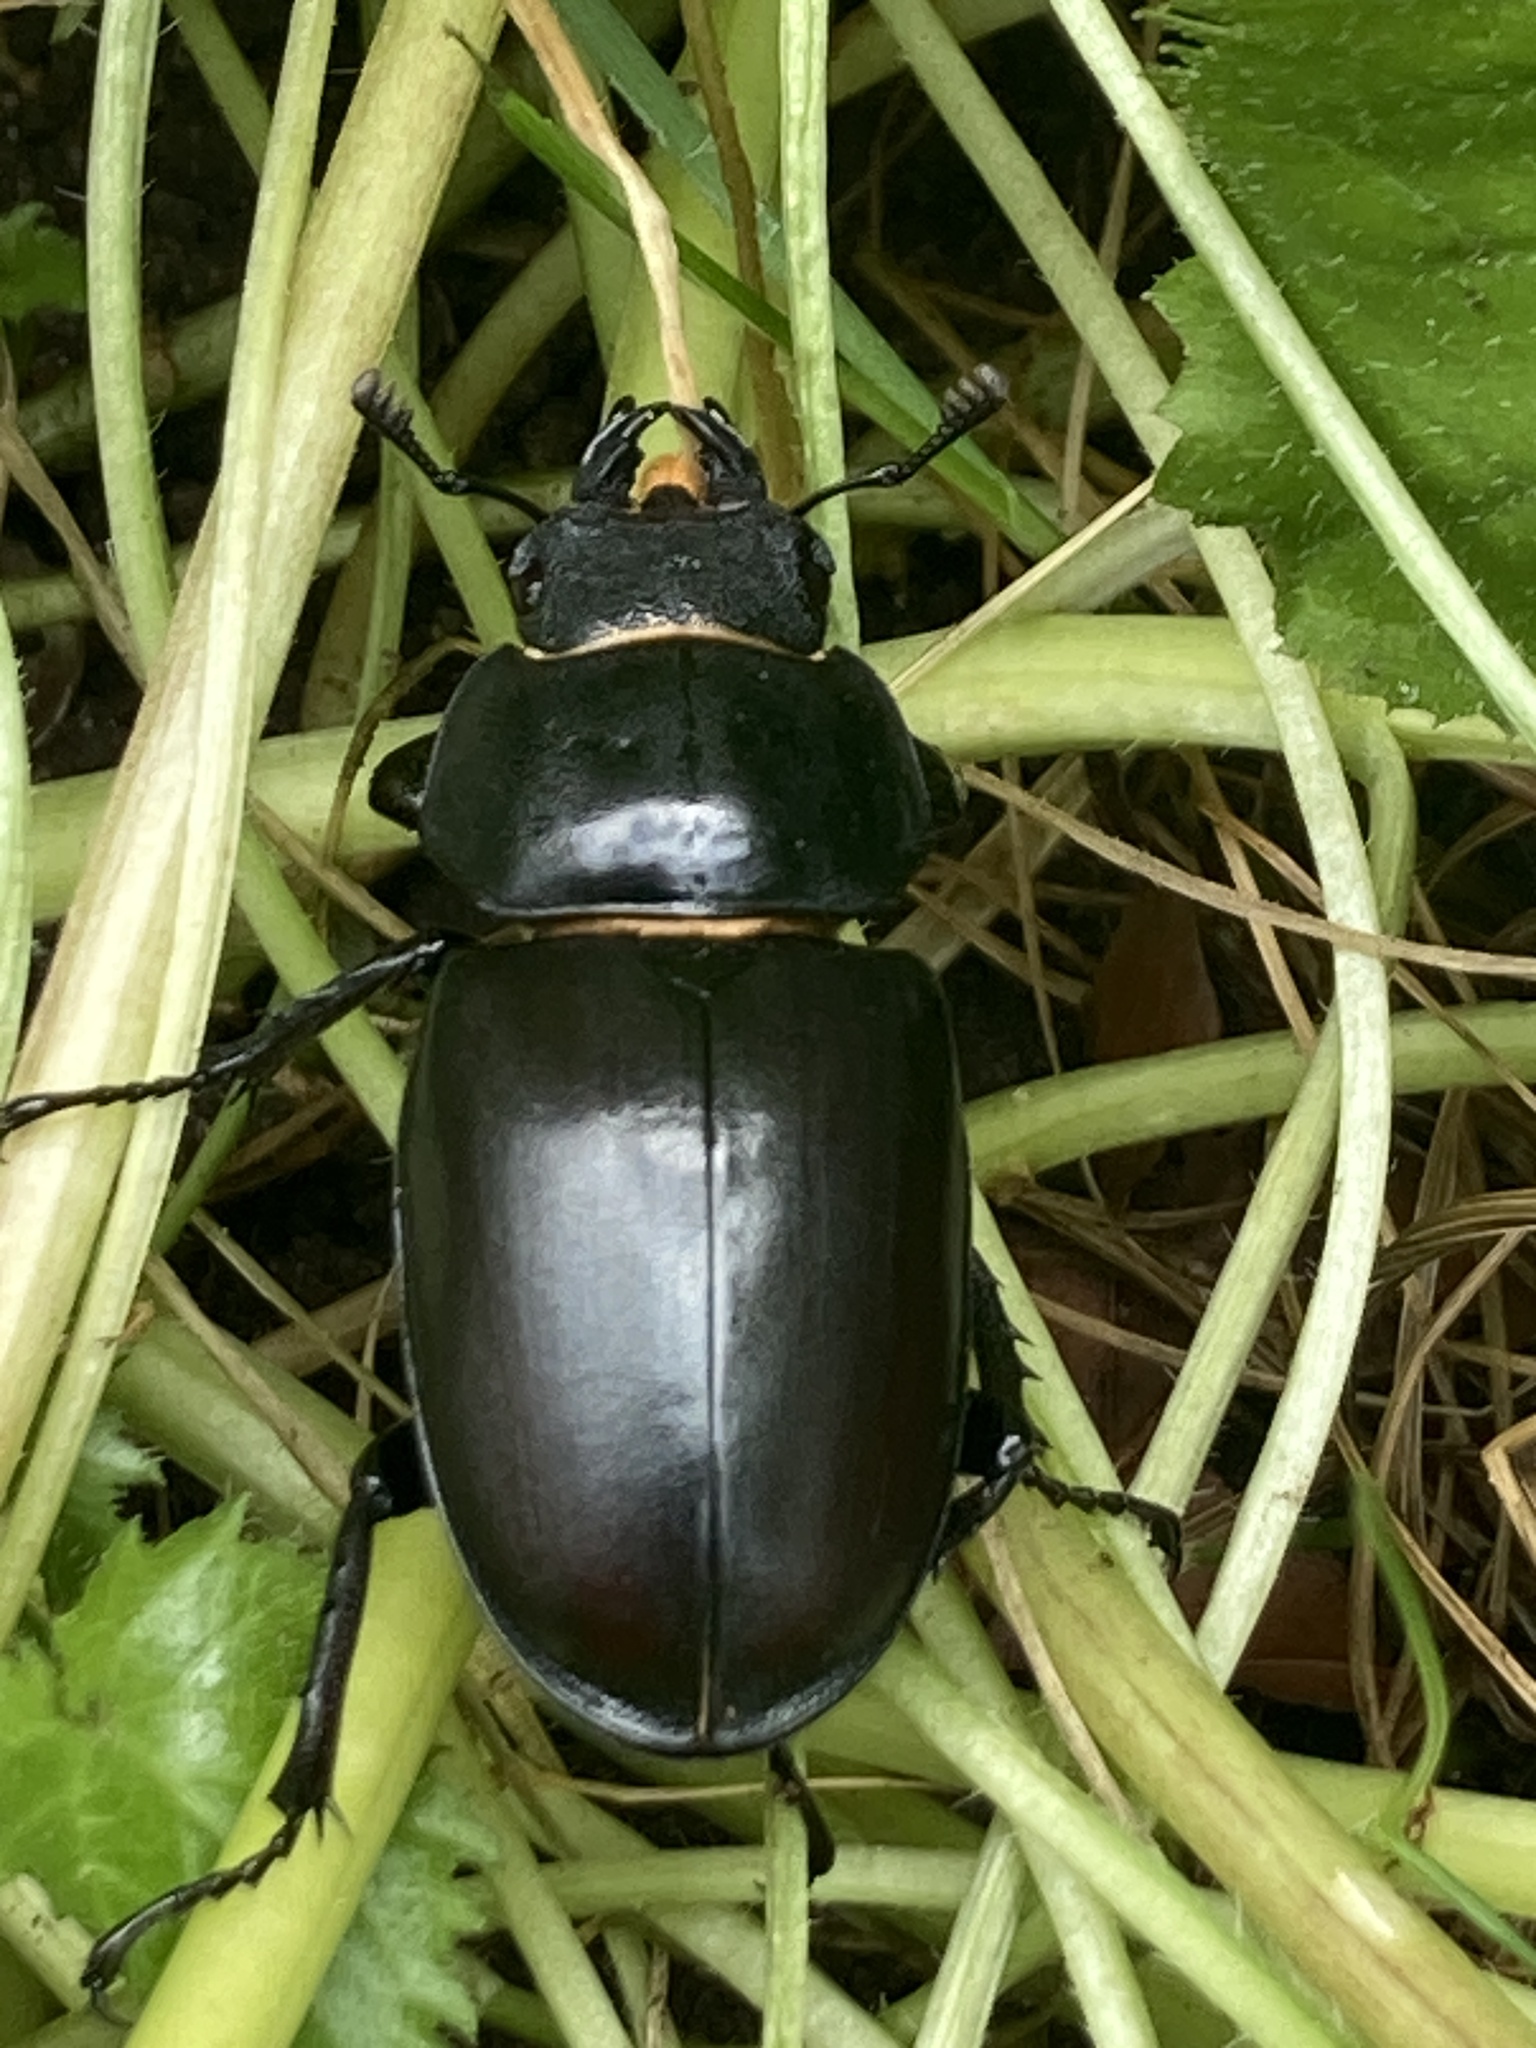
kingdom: Animalia
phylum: Arthropoda
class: Insecta
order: Coleoptera
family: Lucanidae
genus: Lucanus
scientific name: Lucanus cervus
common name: Stag beetle
